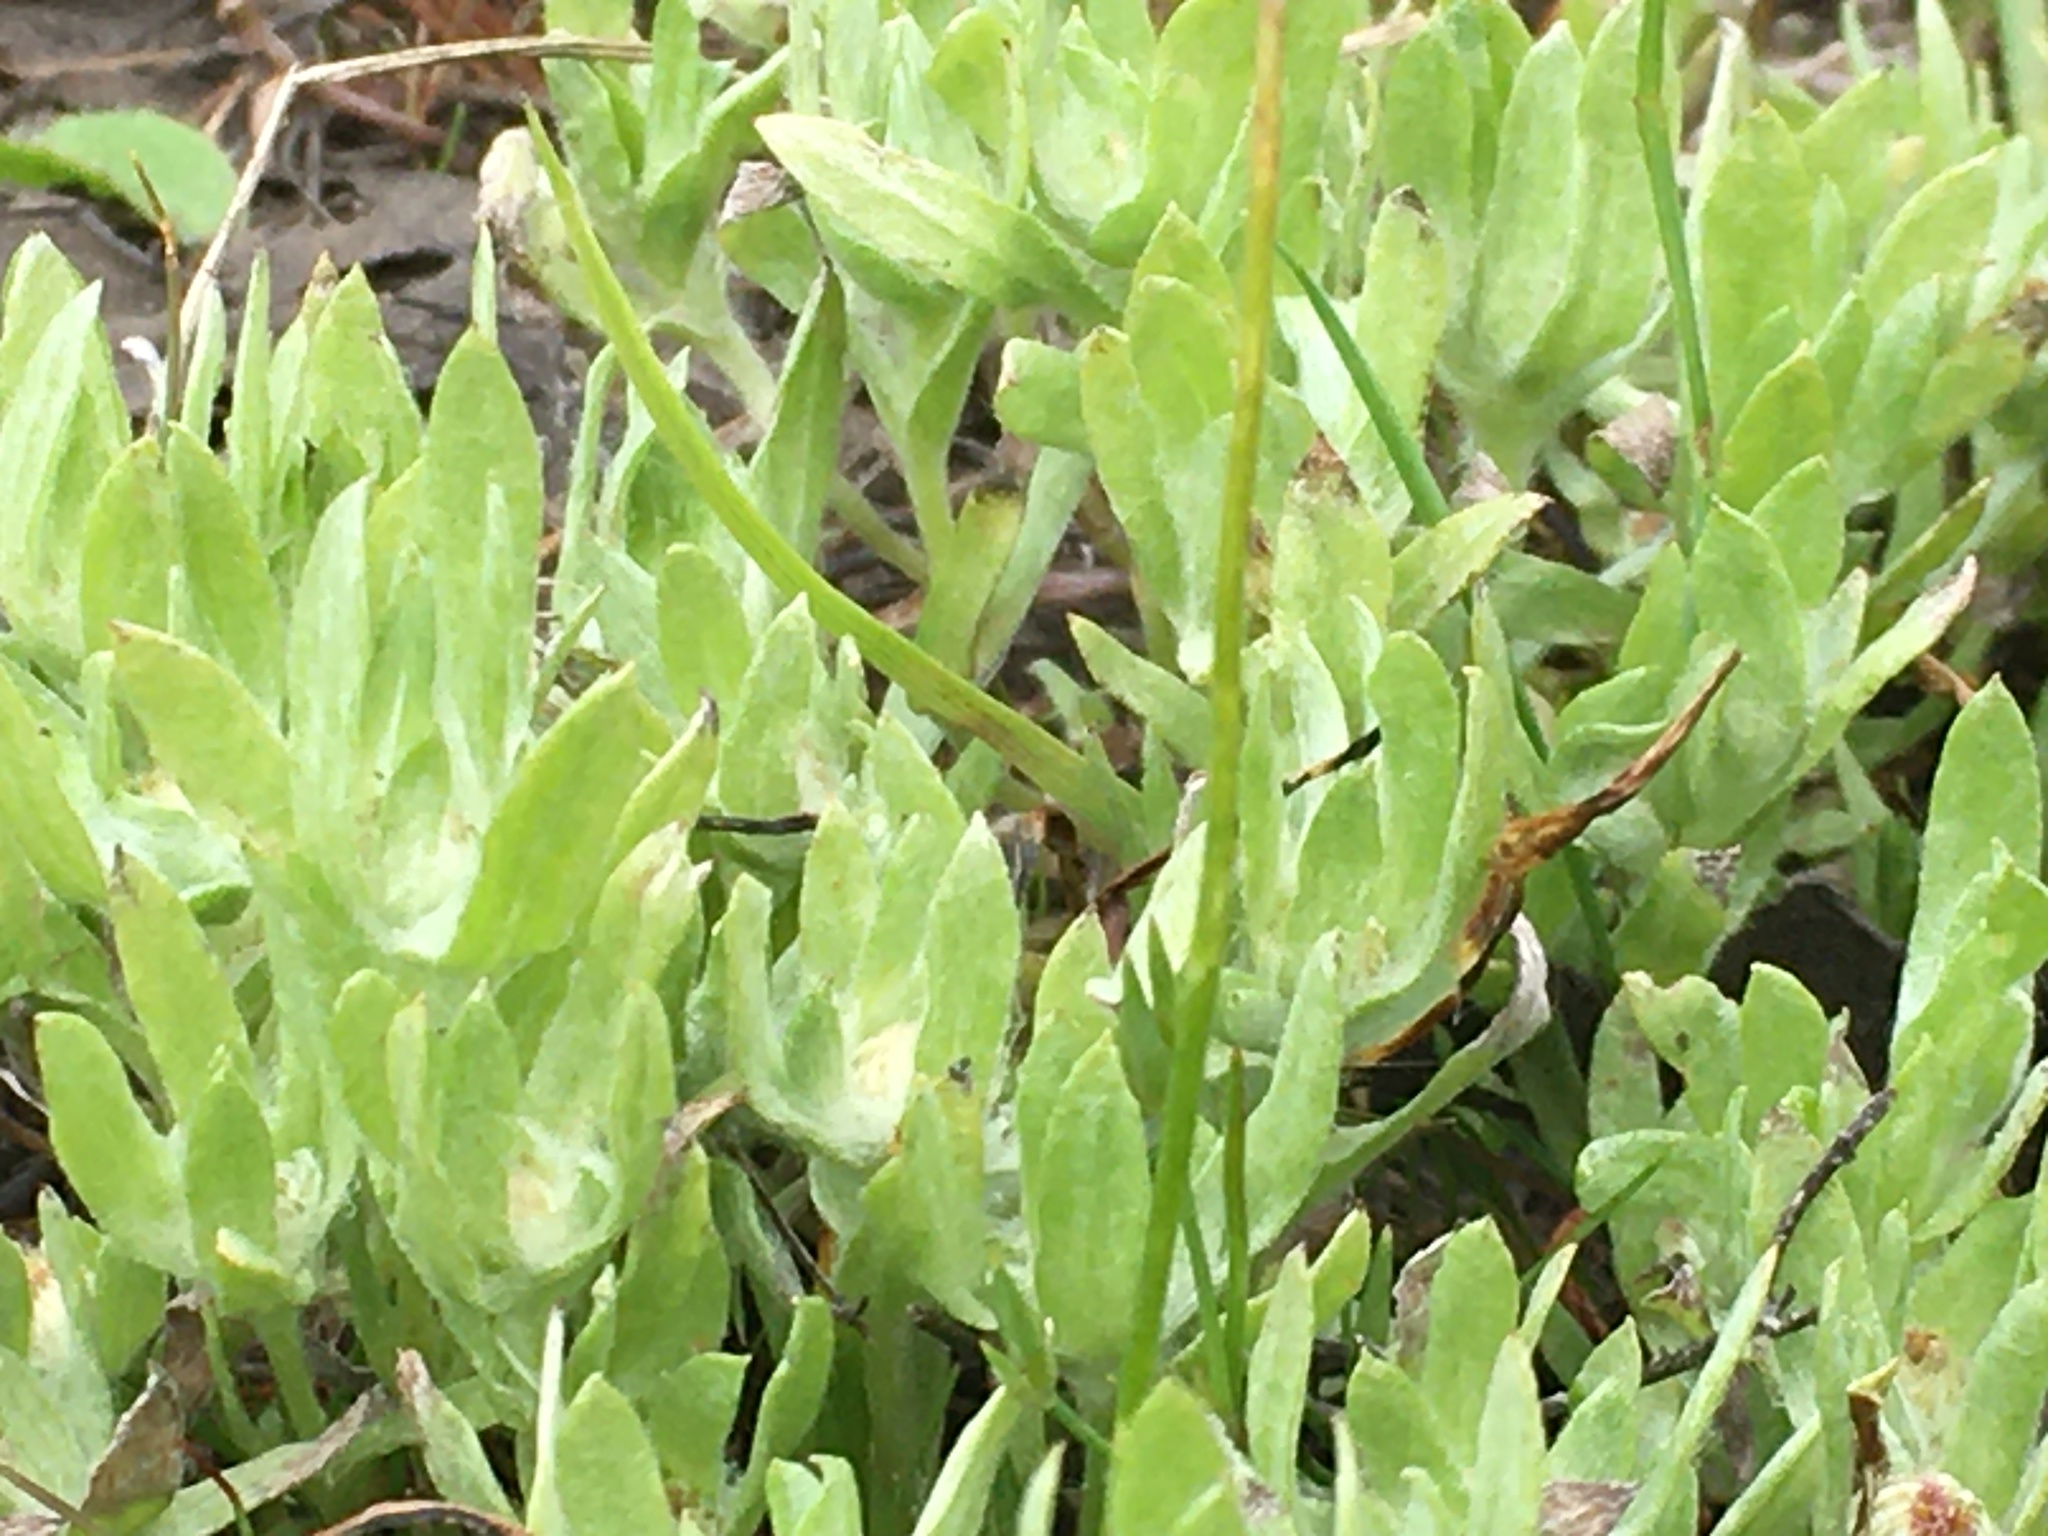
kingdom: Plantae
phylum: Tracheophyta
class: Magnoliopsida
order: Asterales
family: Asteraceae
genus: Psilocarphus
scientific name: Psilocarphus elatior
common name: Meadow woollyheads
